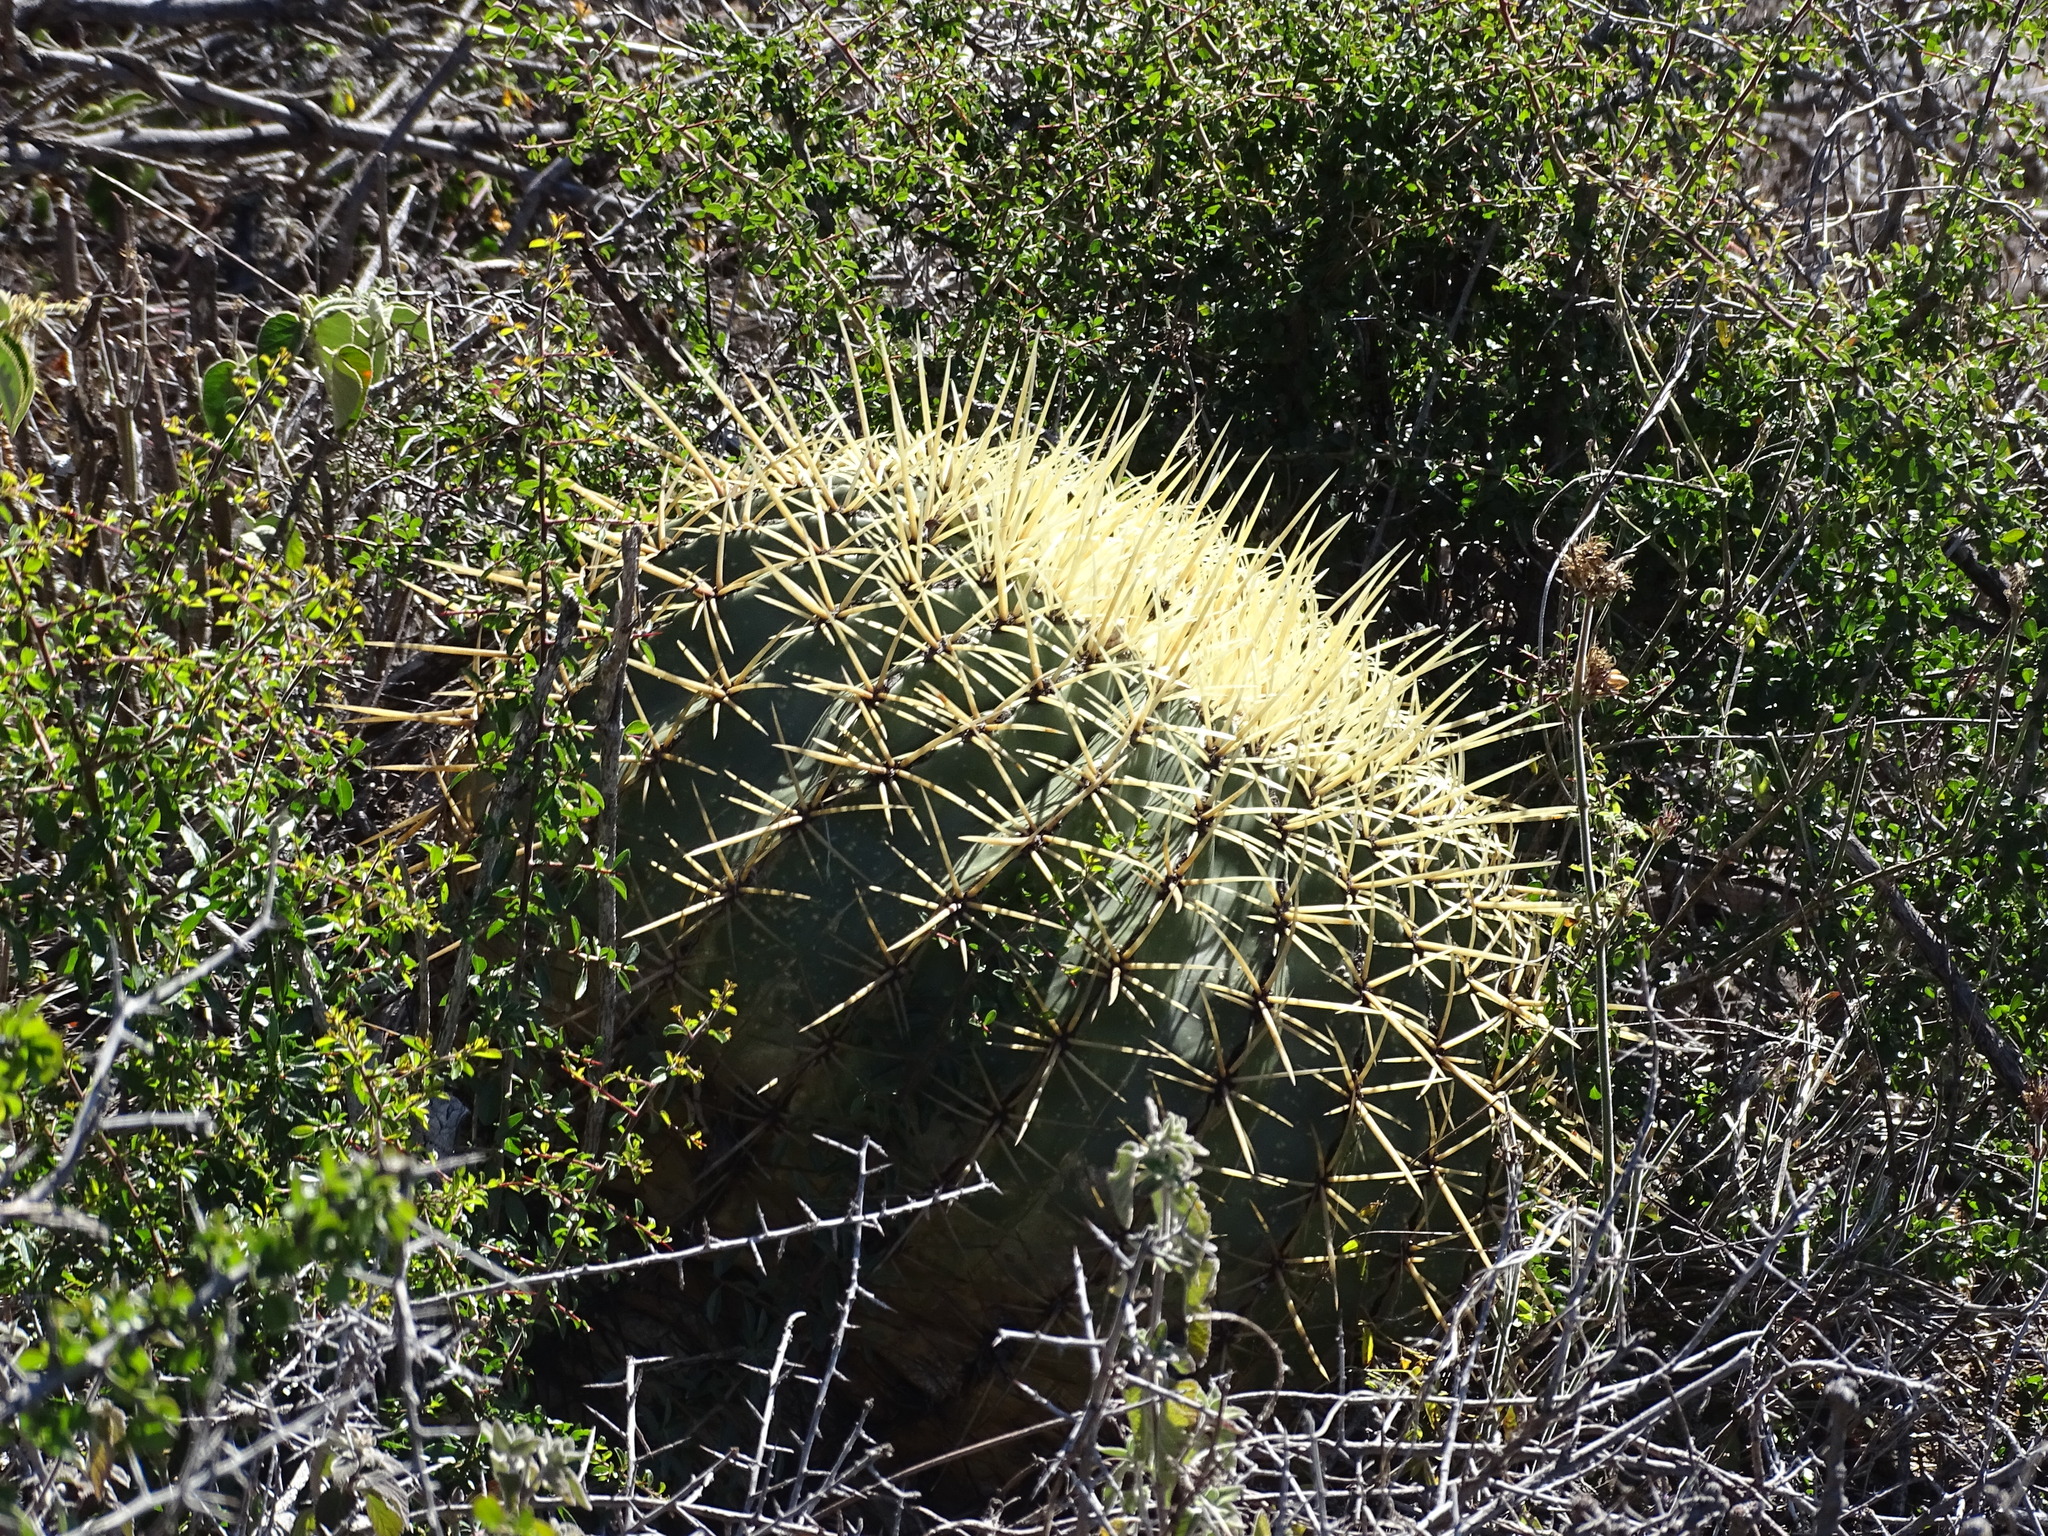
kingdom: Plantae
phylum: Tracheophyta
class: Magnoliopsida
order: Caryophyllales
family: Cactaceae
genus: Bisnaga
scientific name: Bisnaga histrix
